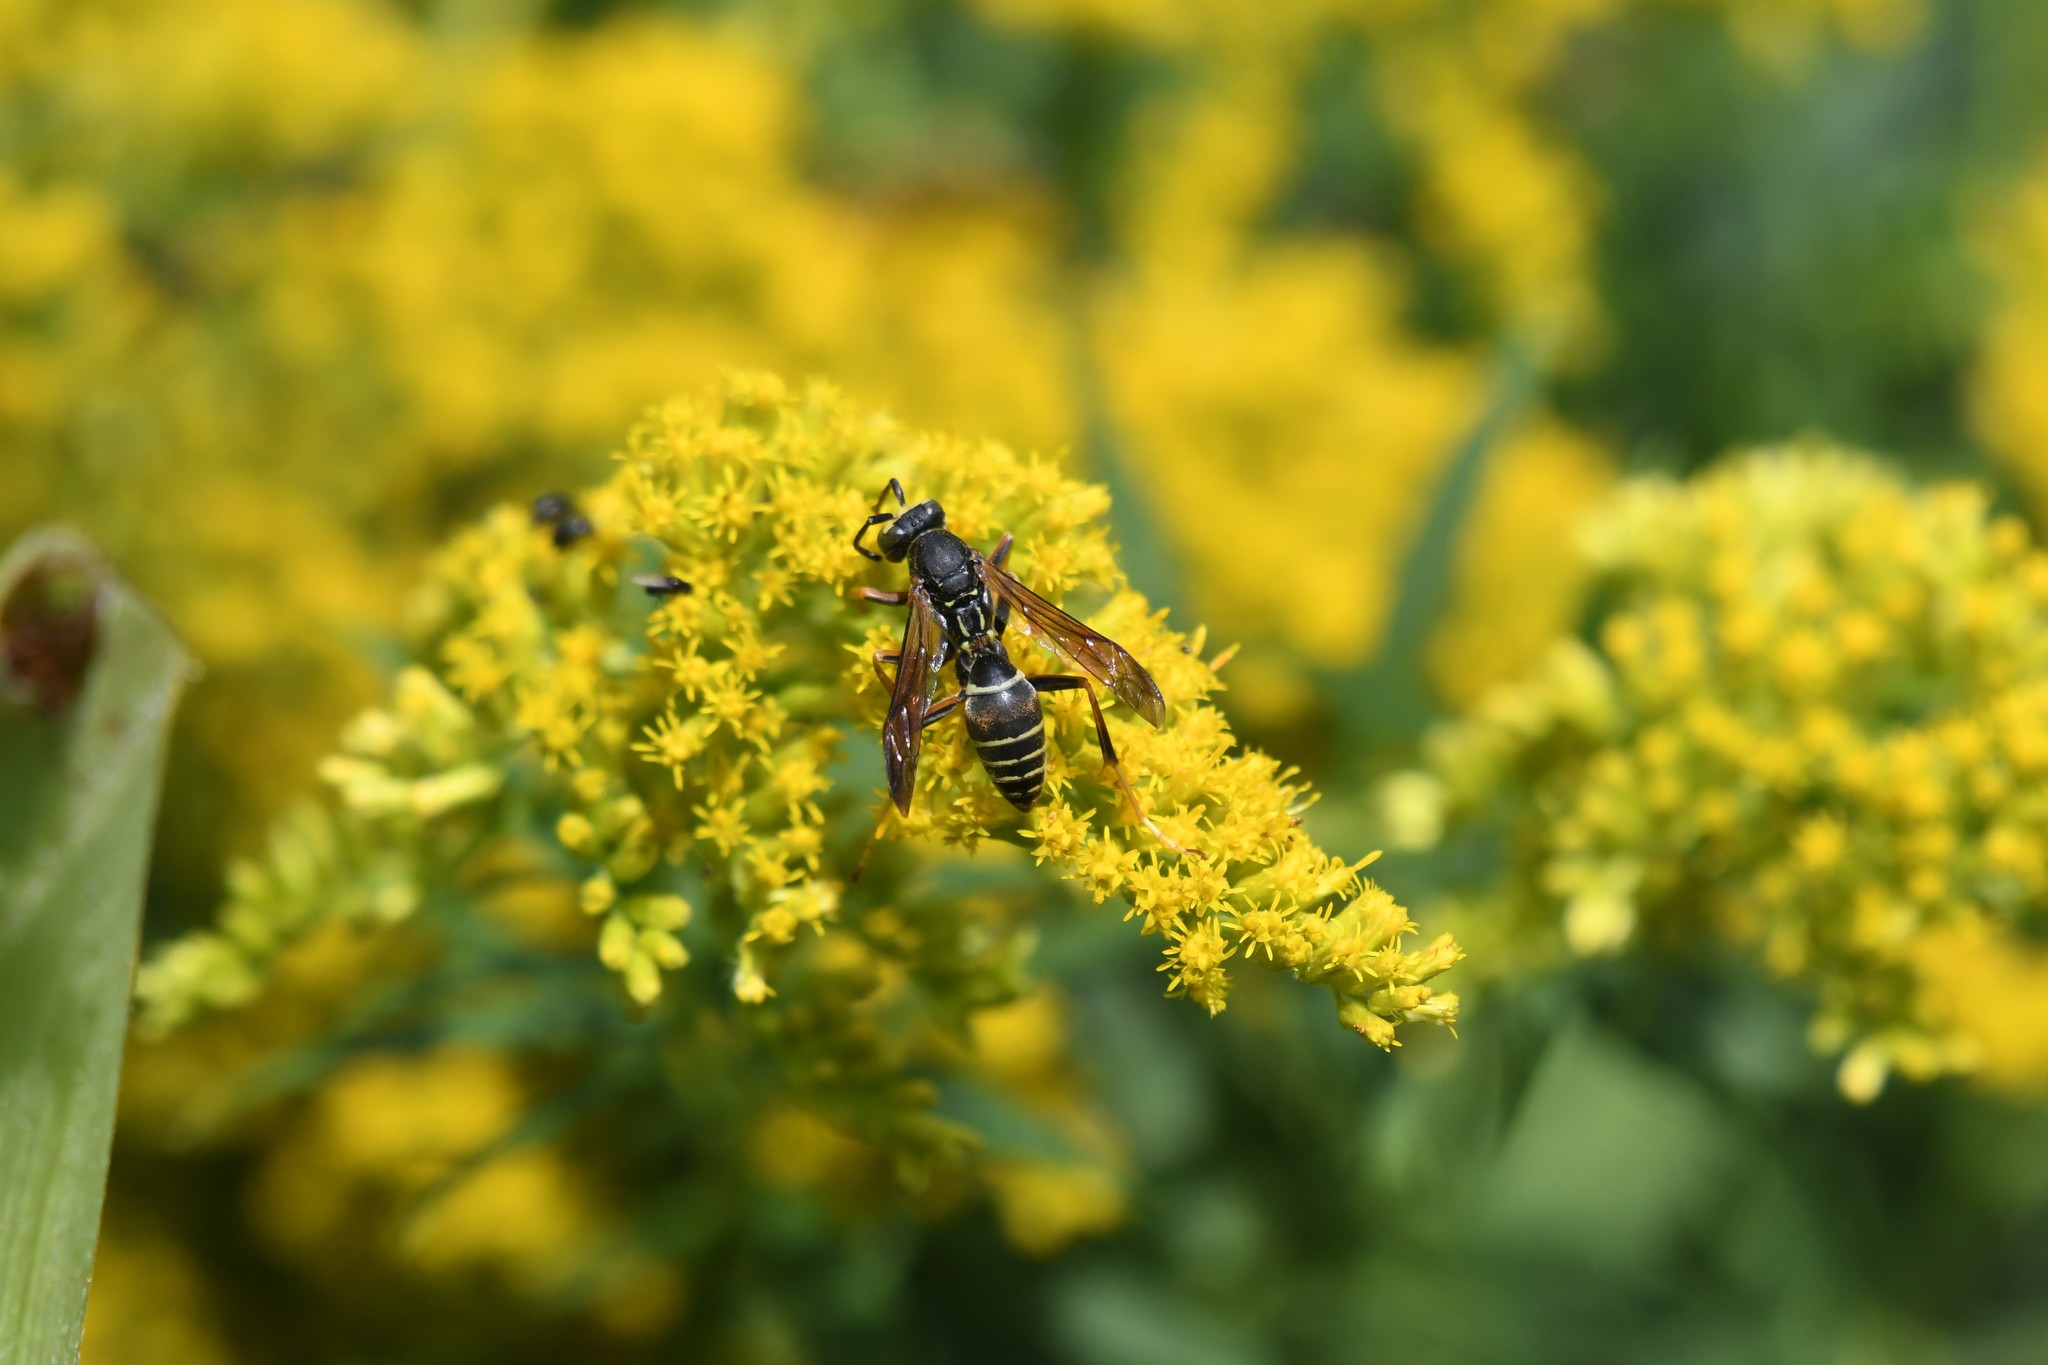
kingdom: Animalia
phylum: Arthropoda
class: Insecta
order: Hymenoptera
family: Eumenidae
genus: Polistes
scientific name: Polistes fuscatus
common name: Dark paper wasp
